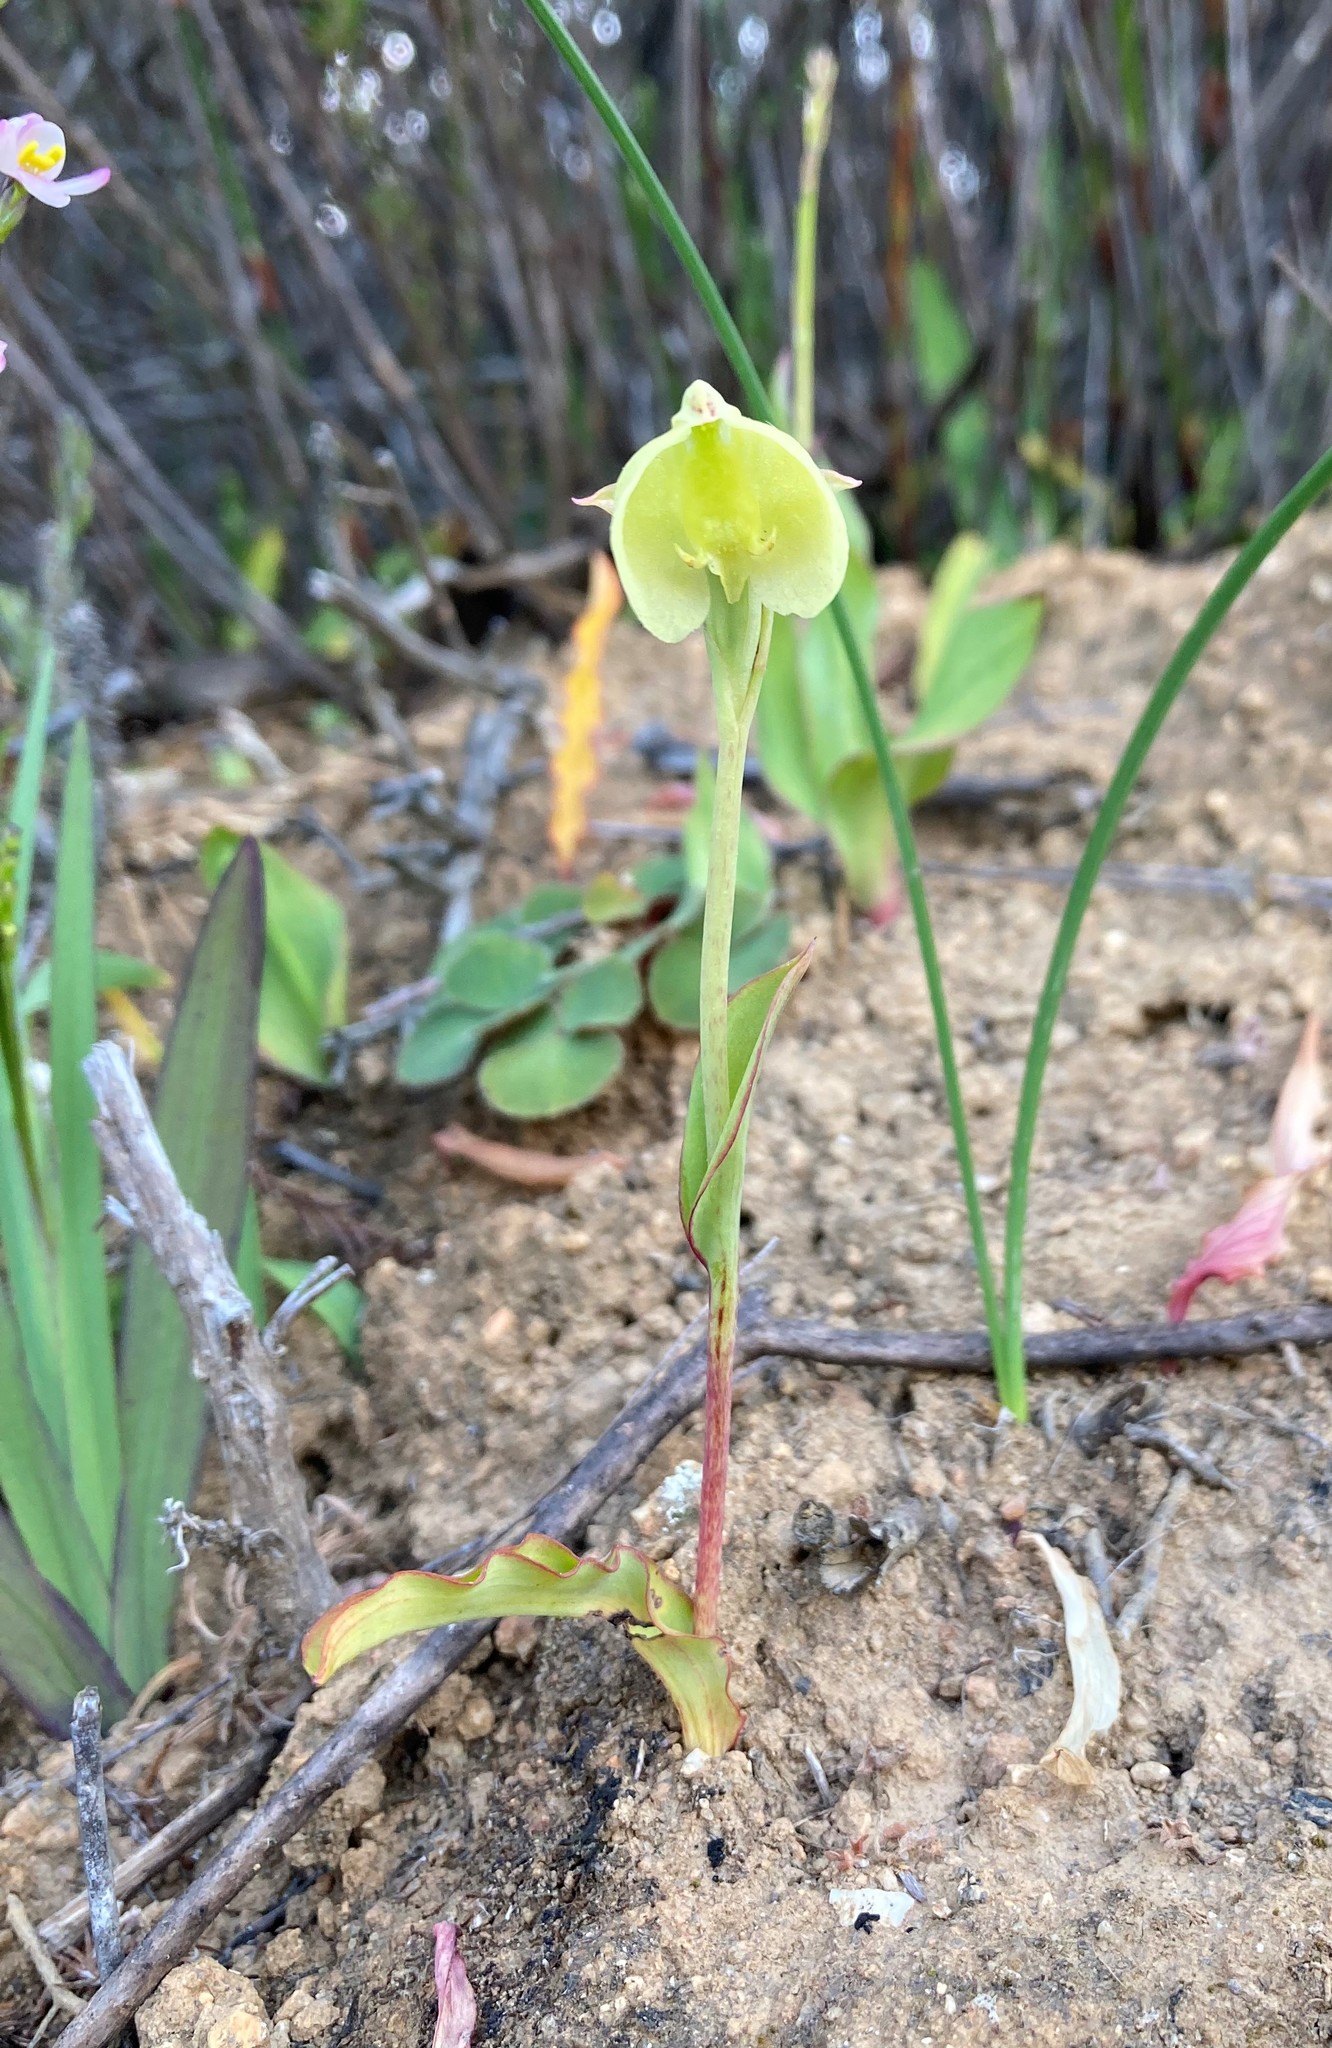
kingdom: Plantae
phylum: Tracheophyta
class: Liliopsida
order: Asparagales
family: Orchidaceae
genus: Pterygodium
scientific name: Pterygodium catholicum
